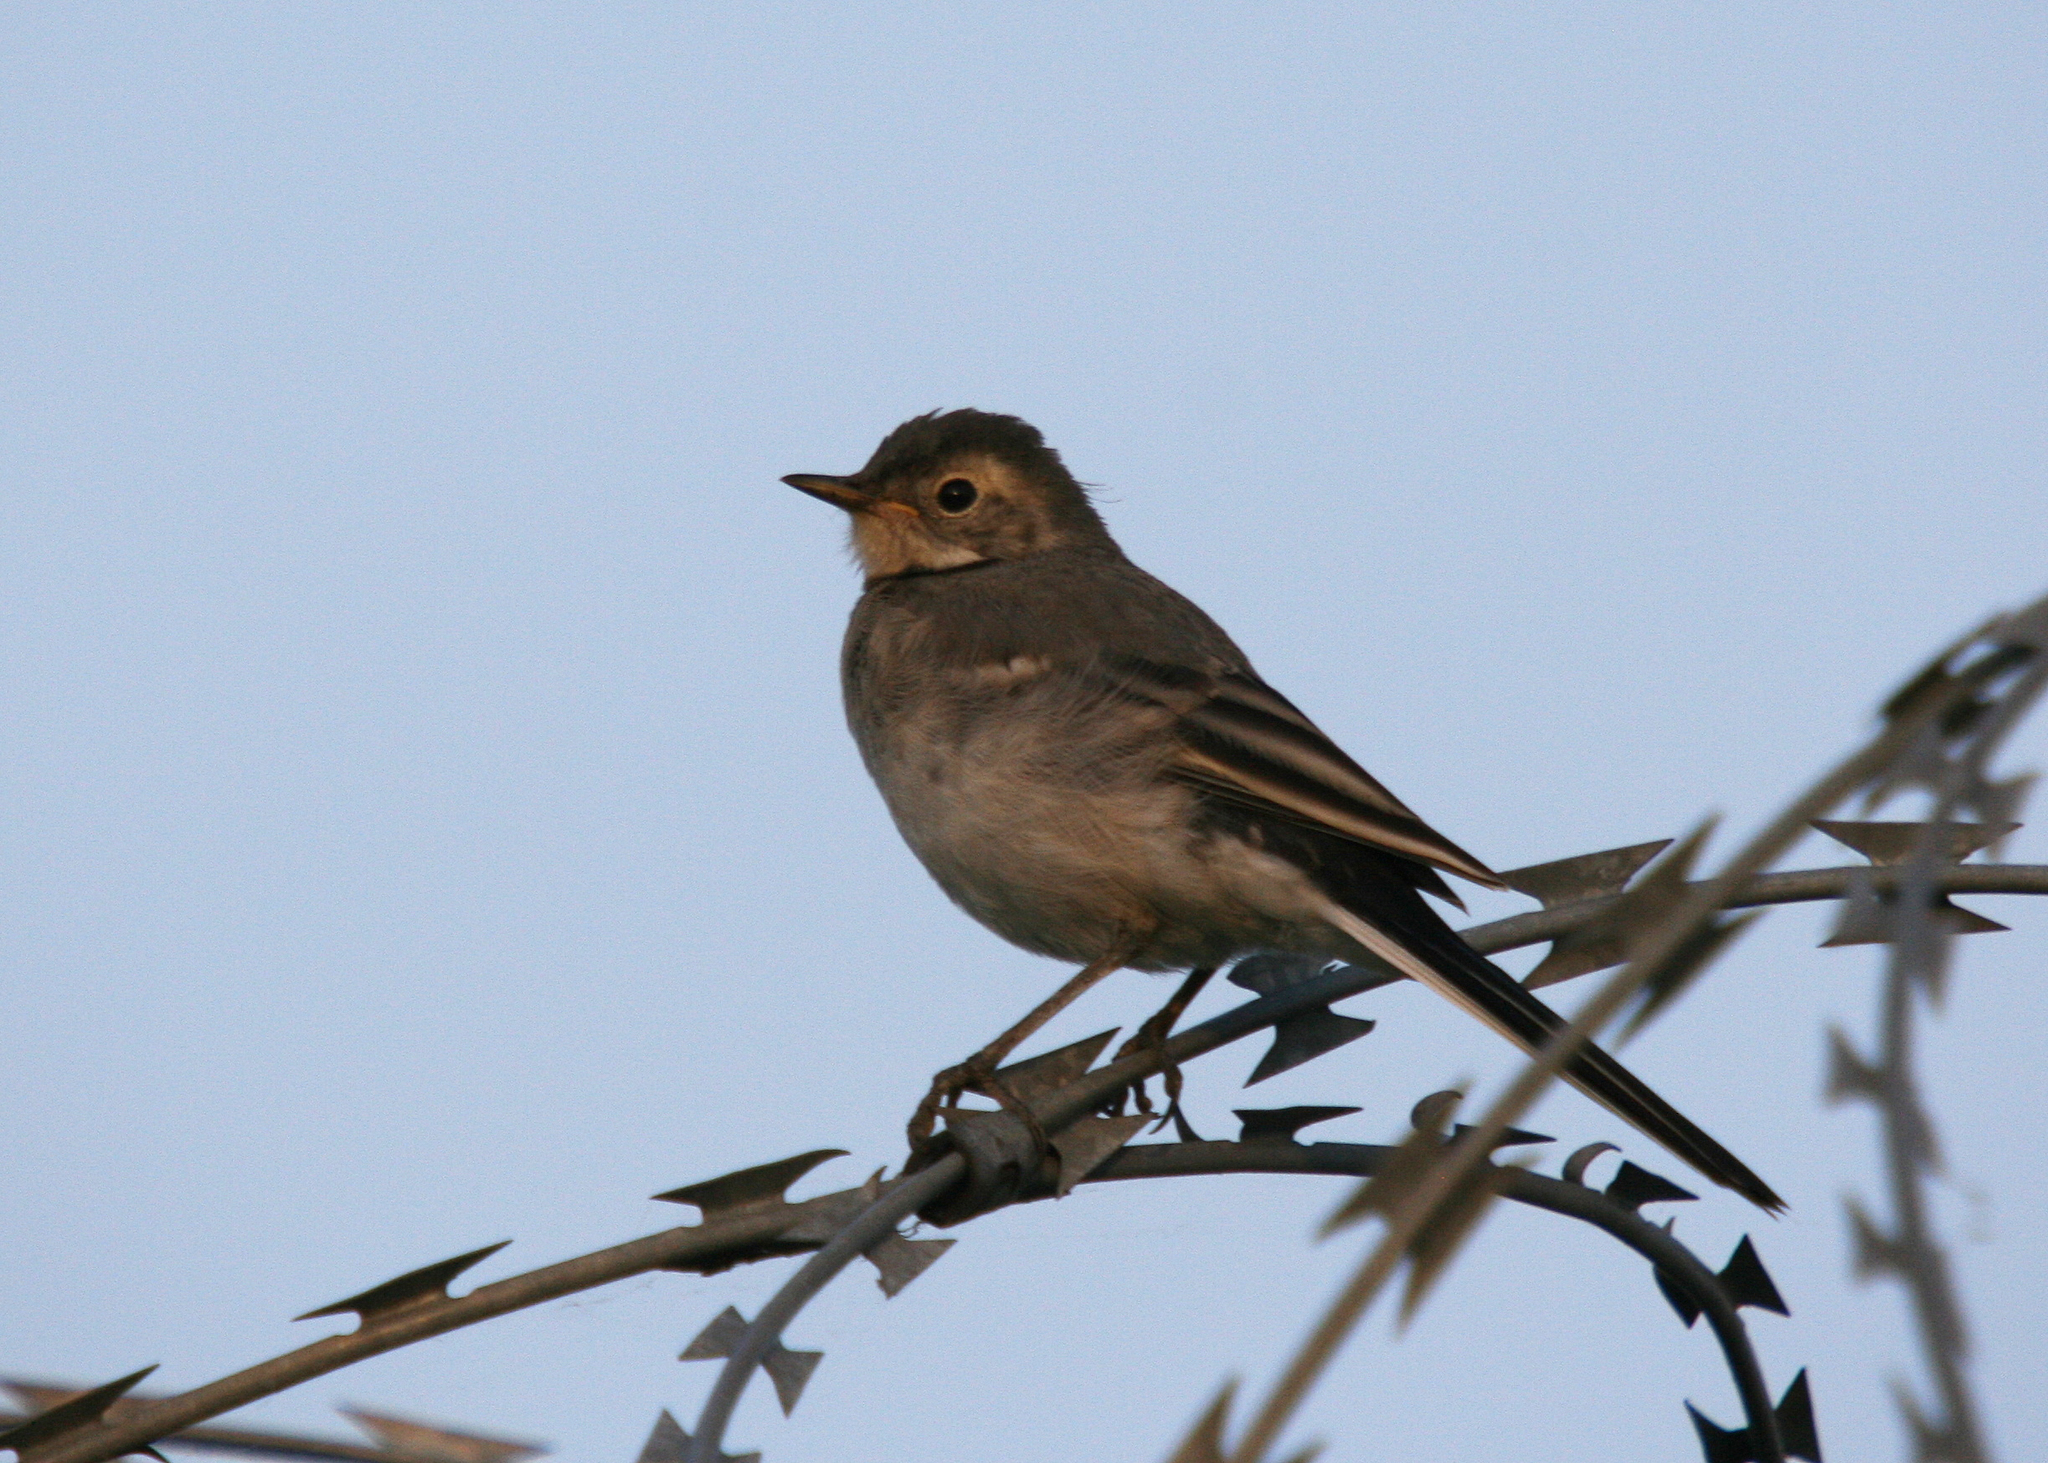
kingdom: Animalia
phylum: Chordata
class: Aves
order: Passeriformes
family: Motacillidae
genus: Motacilla
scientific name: Motacilla alba
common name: White wagtail
